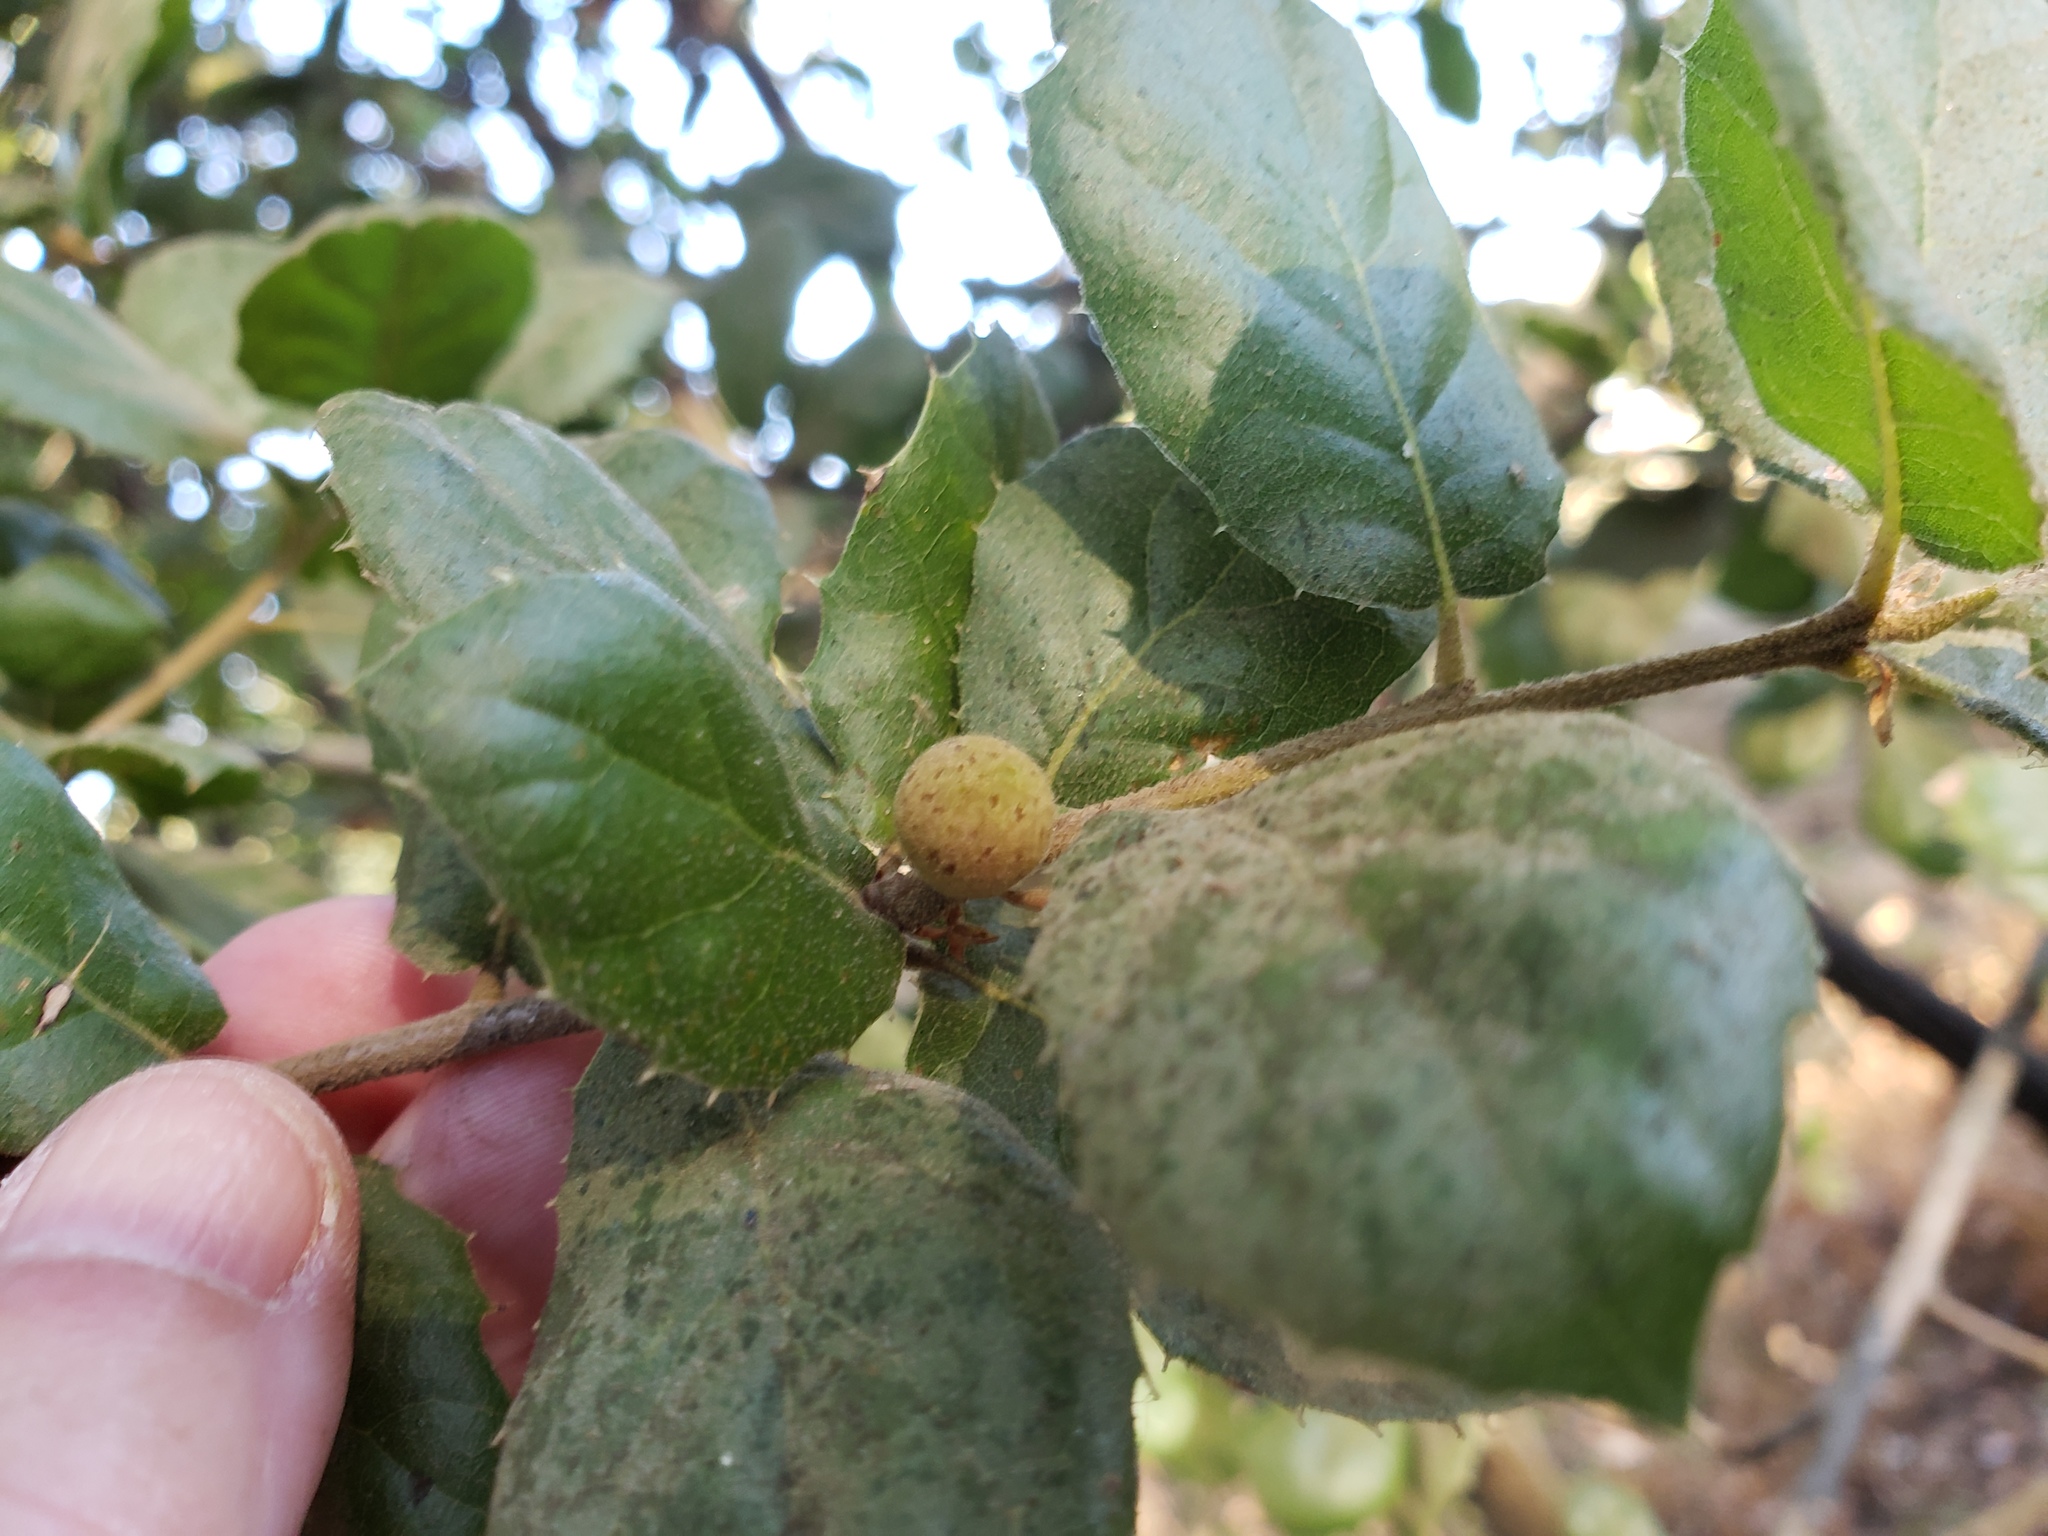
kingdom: Animalia
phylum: Arthropoda
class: Insecta
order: Hymenoptera
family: Cynipidae
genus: Callirhytis
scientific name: Callirhytis
